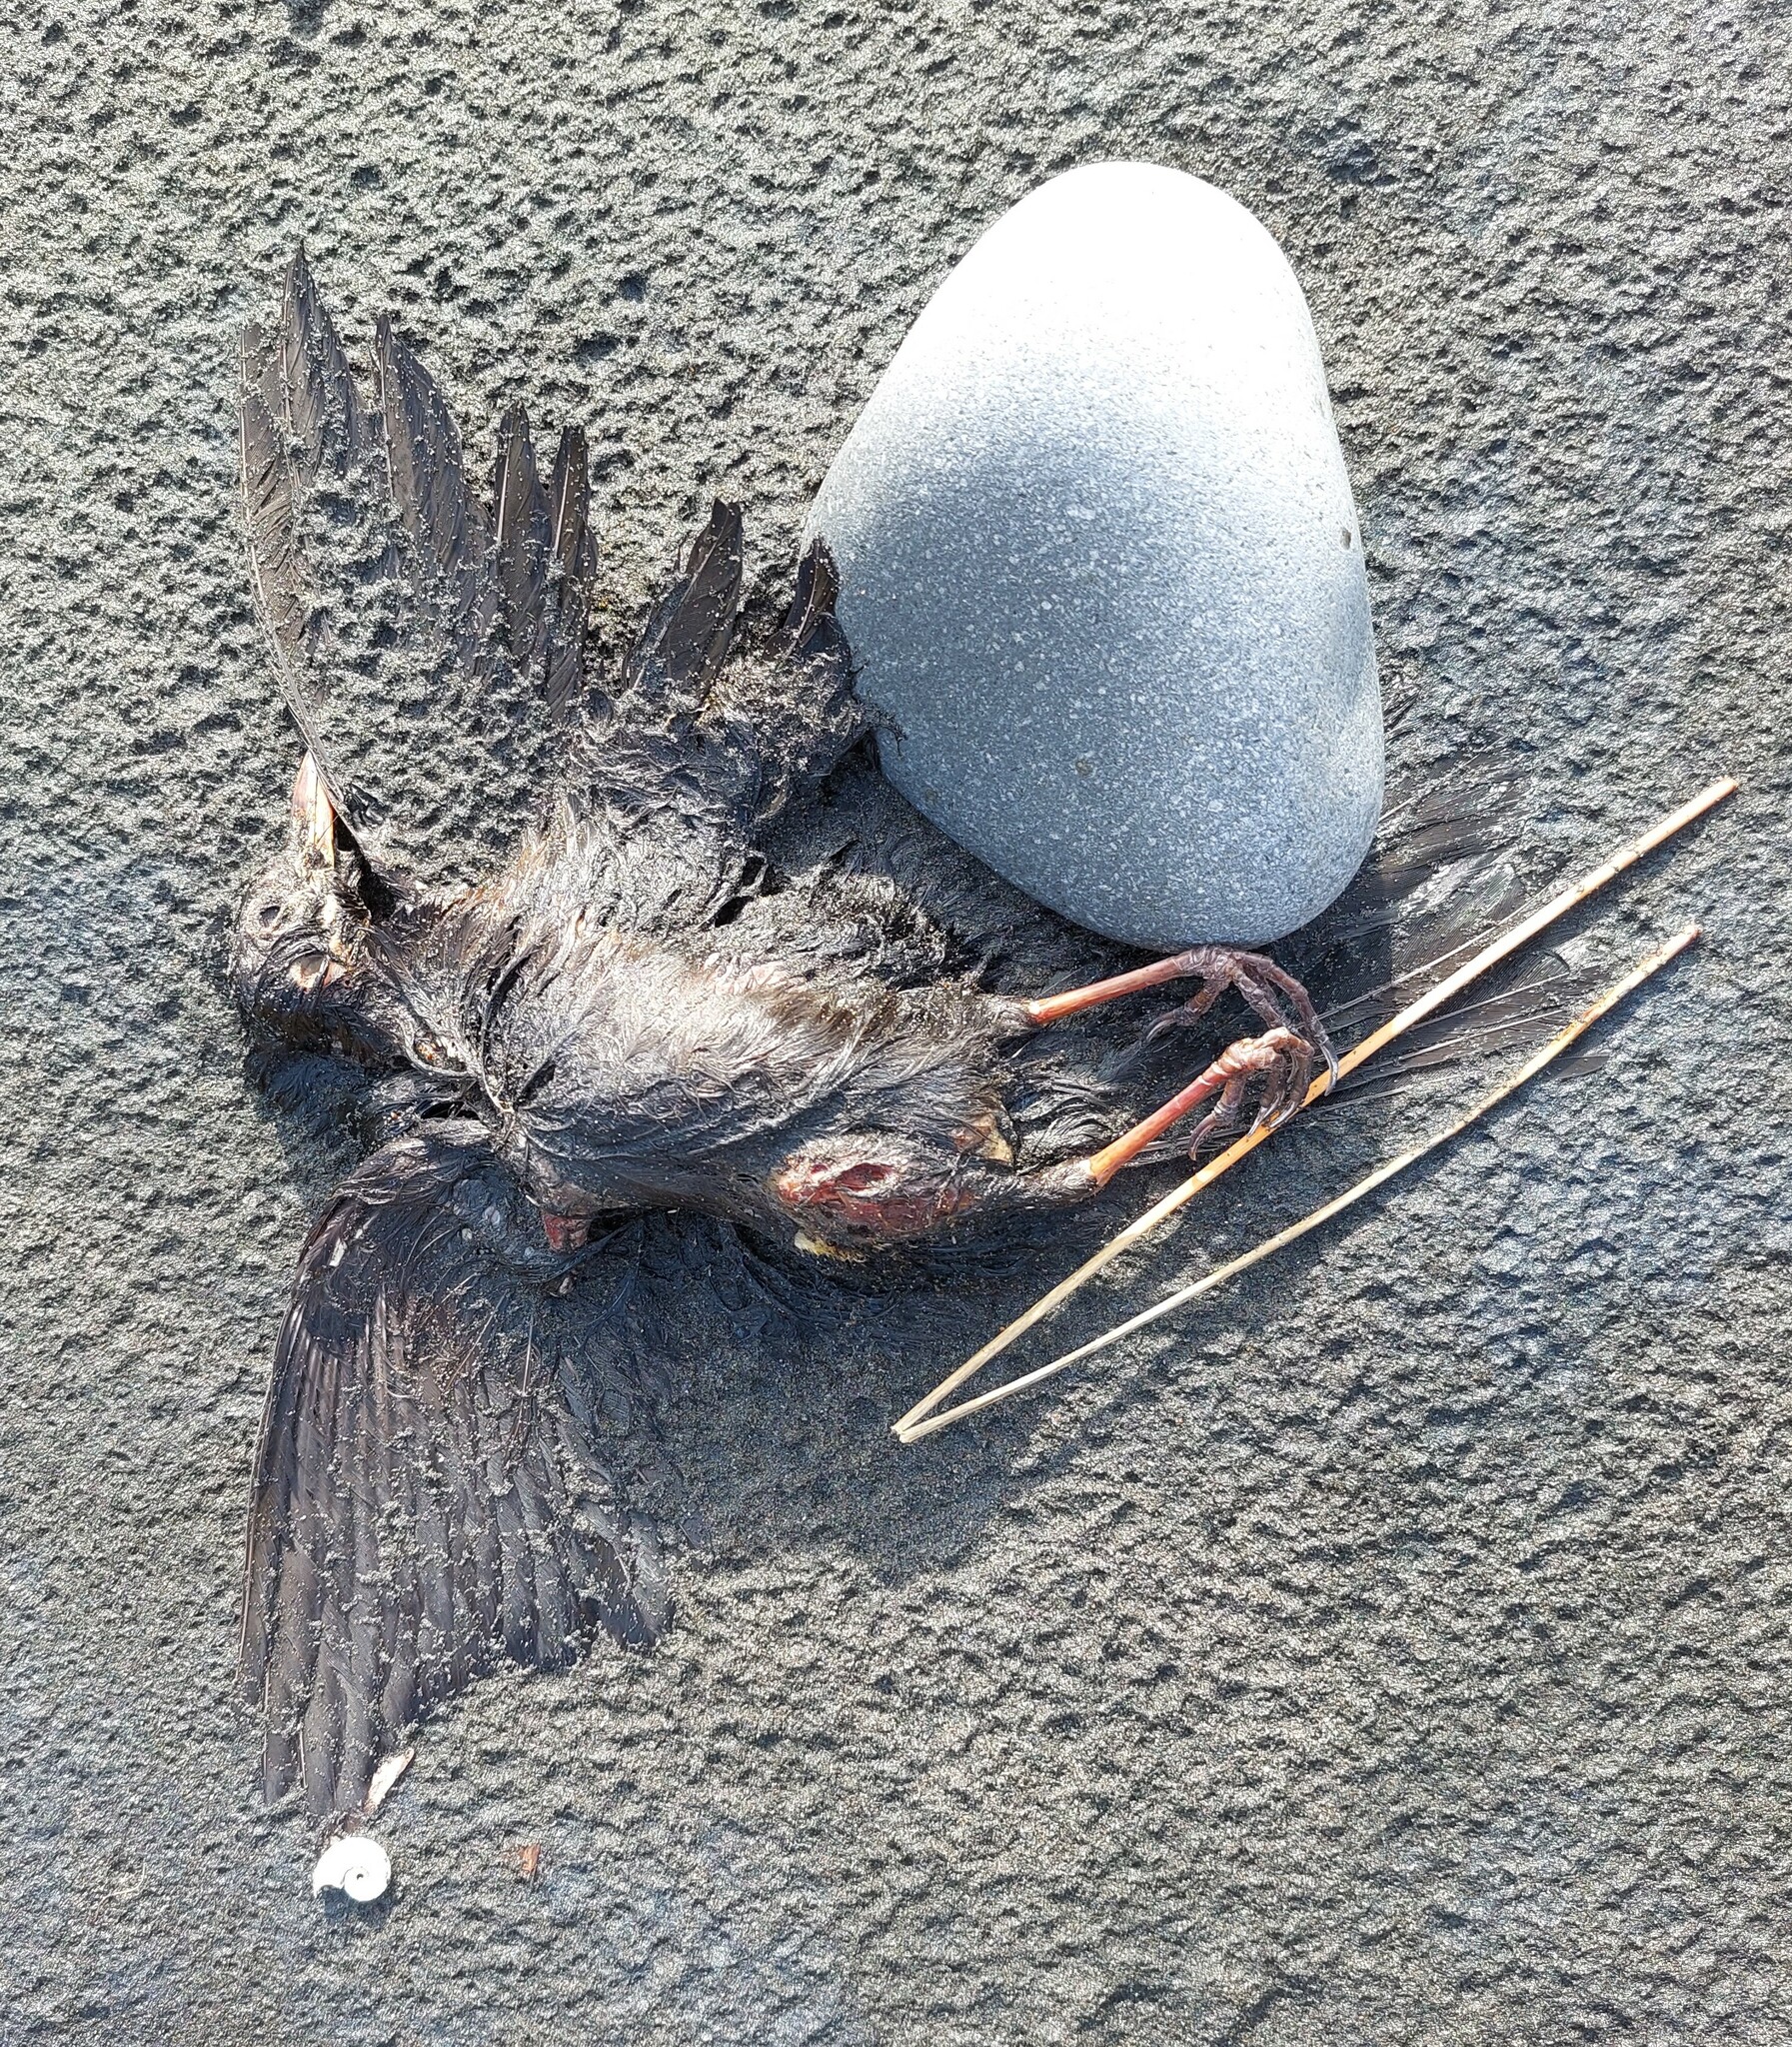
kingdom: Animalia
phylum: Chordata
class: Aves
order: Passeriformes
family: Turdidae
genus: Turdus
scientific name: Turdus merula
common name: Common blackbird
